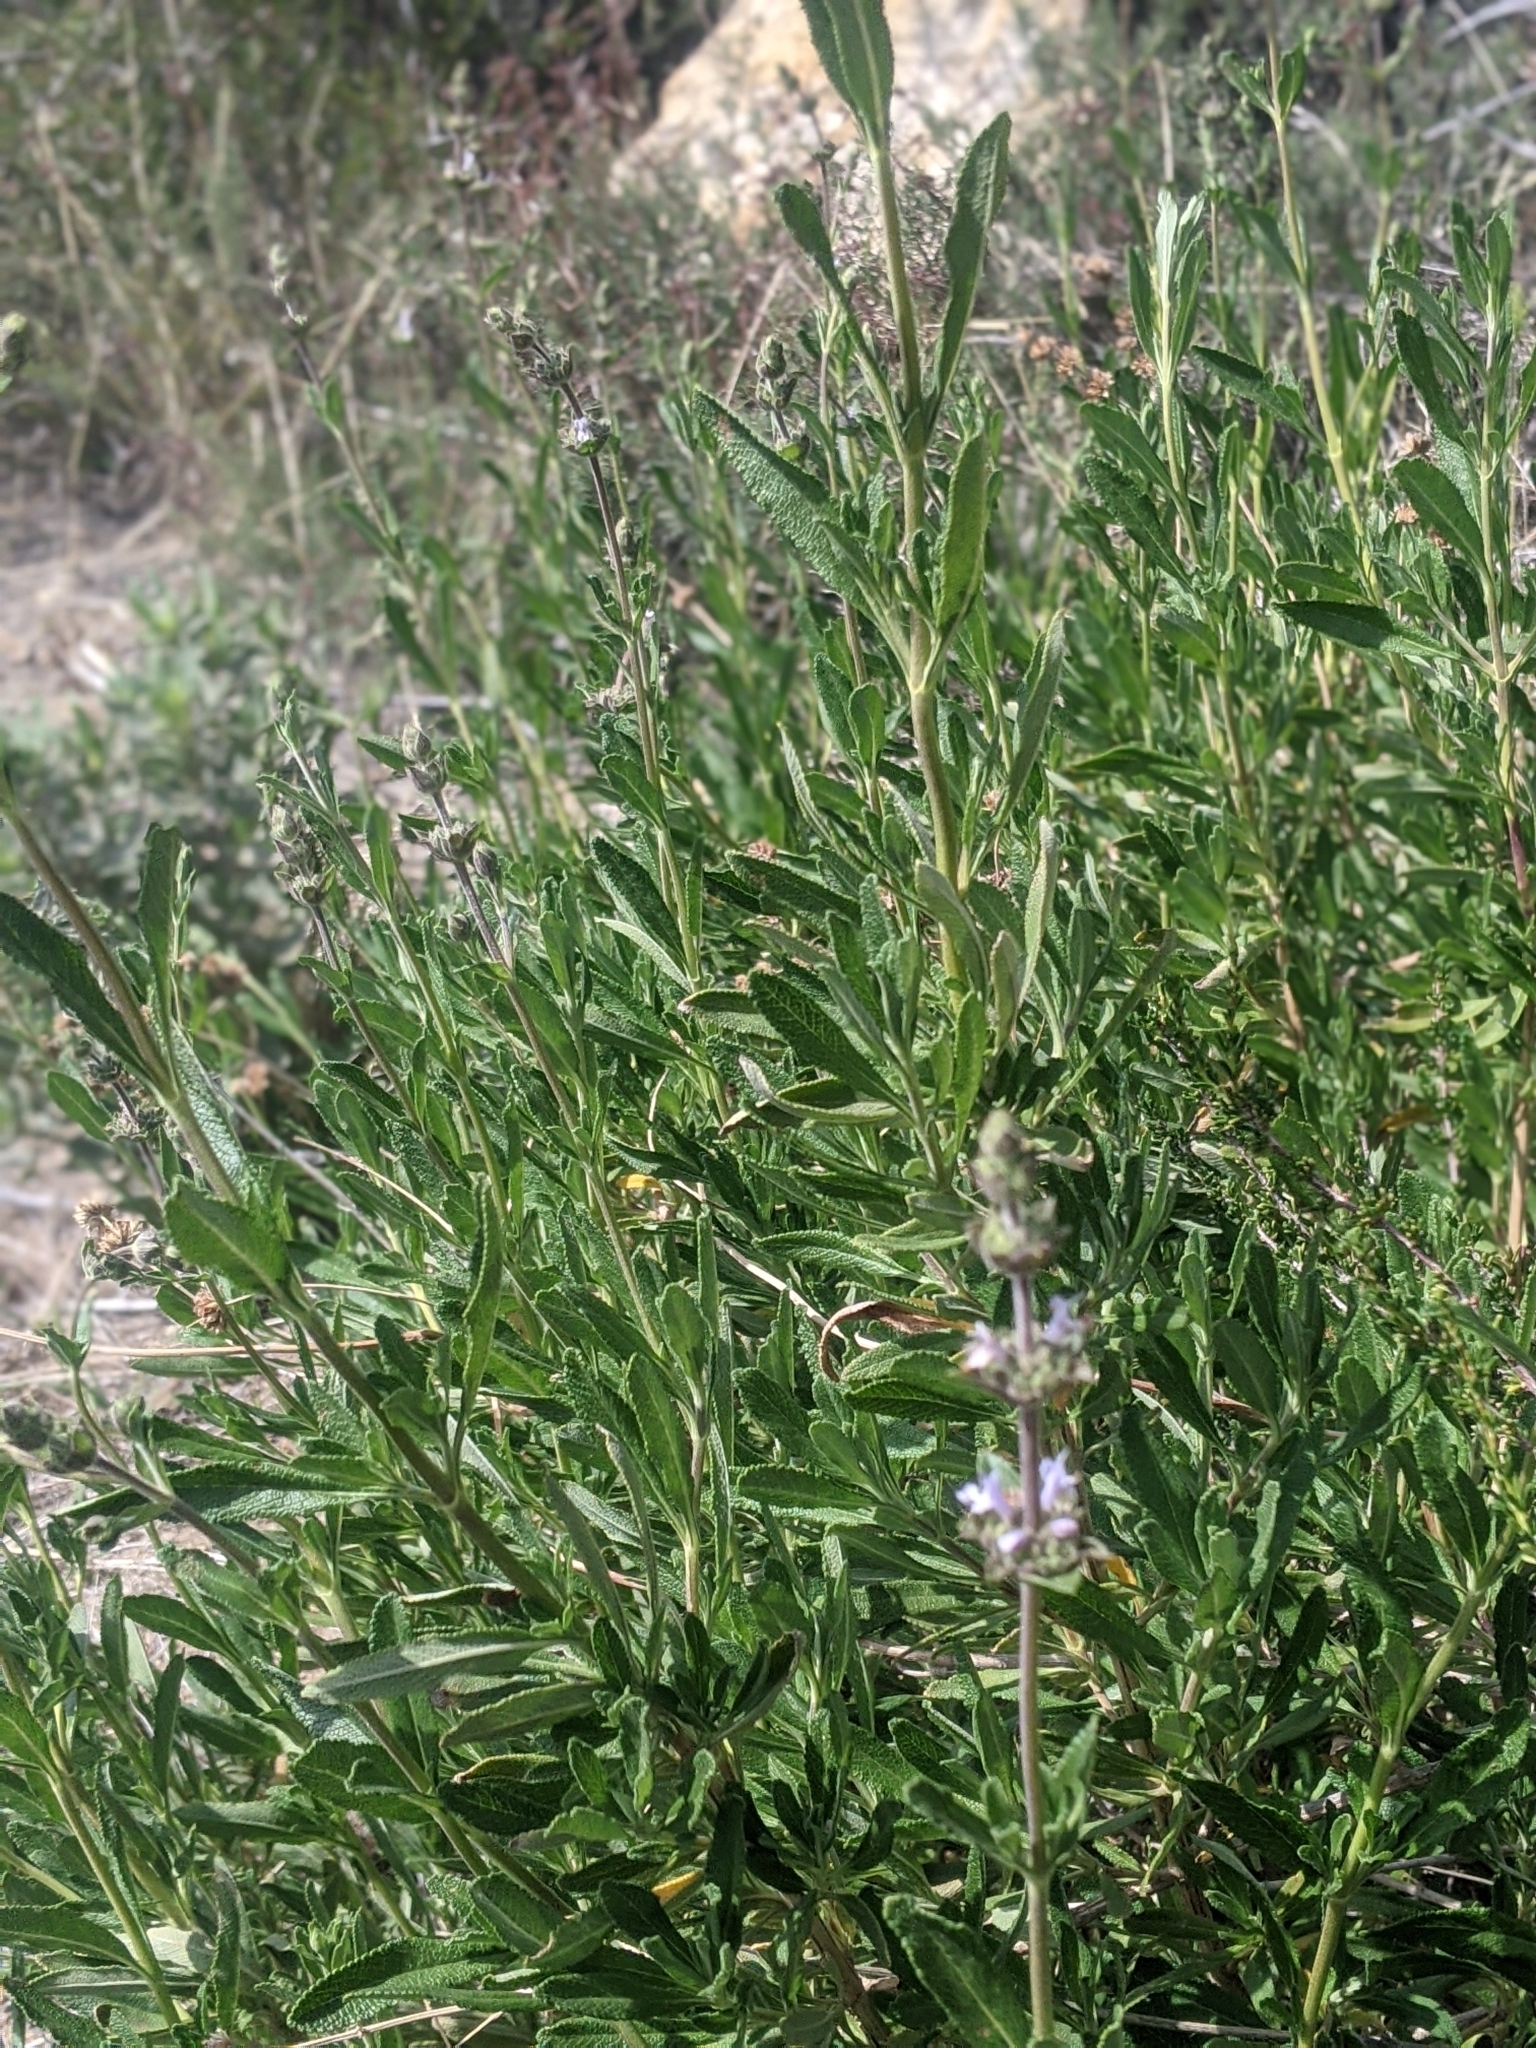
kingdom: Plantae
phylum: Tracheophyta
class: Magnoliopsida
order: Lamiales
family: Lamiaceae
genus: Salvia
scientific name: Salvia mellifera
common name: Black sage
